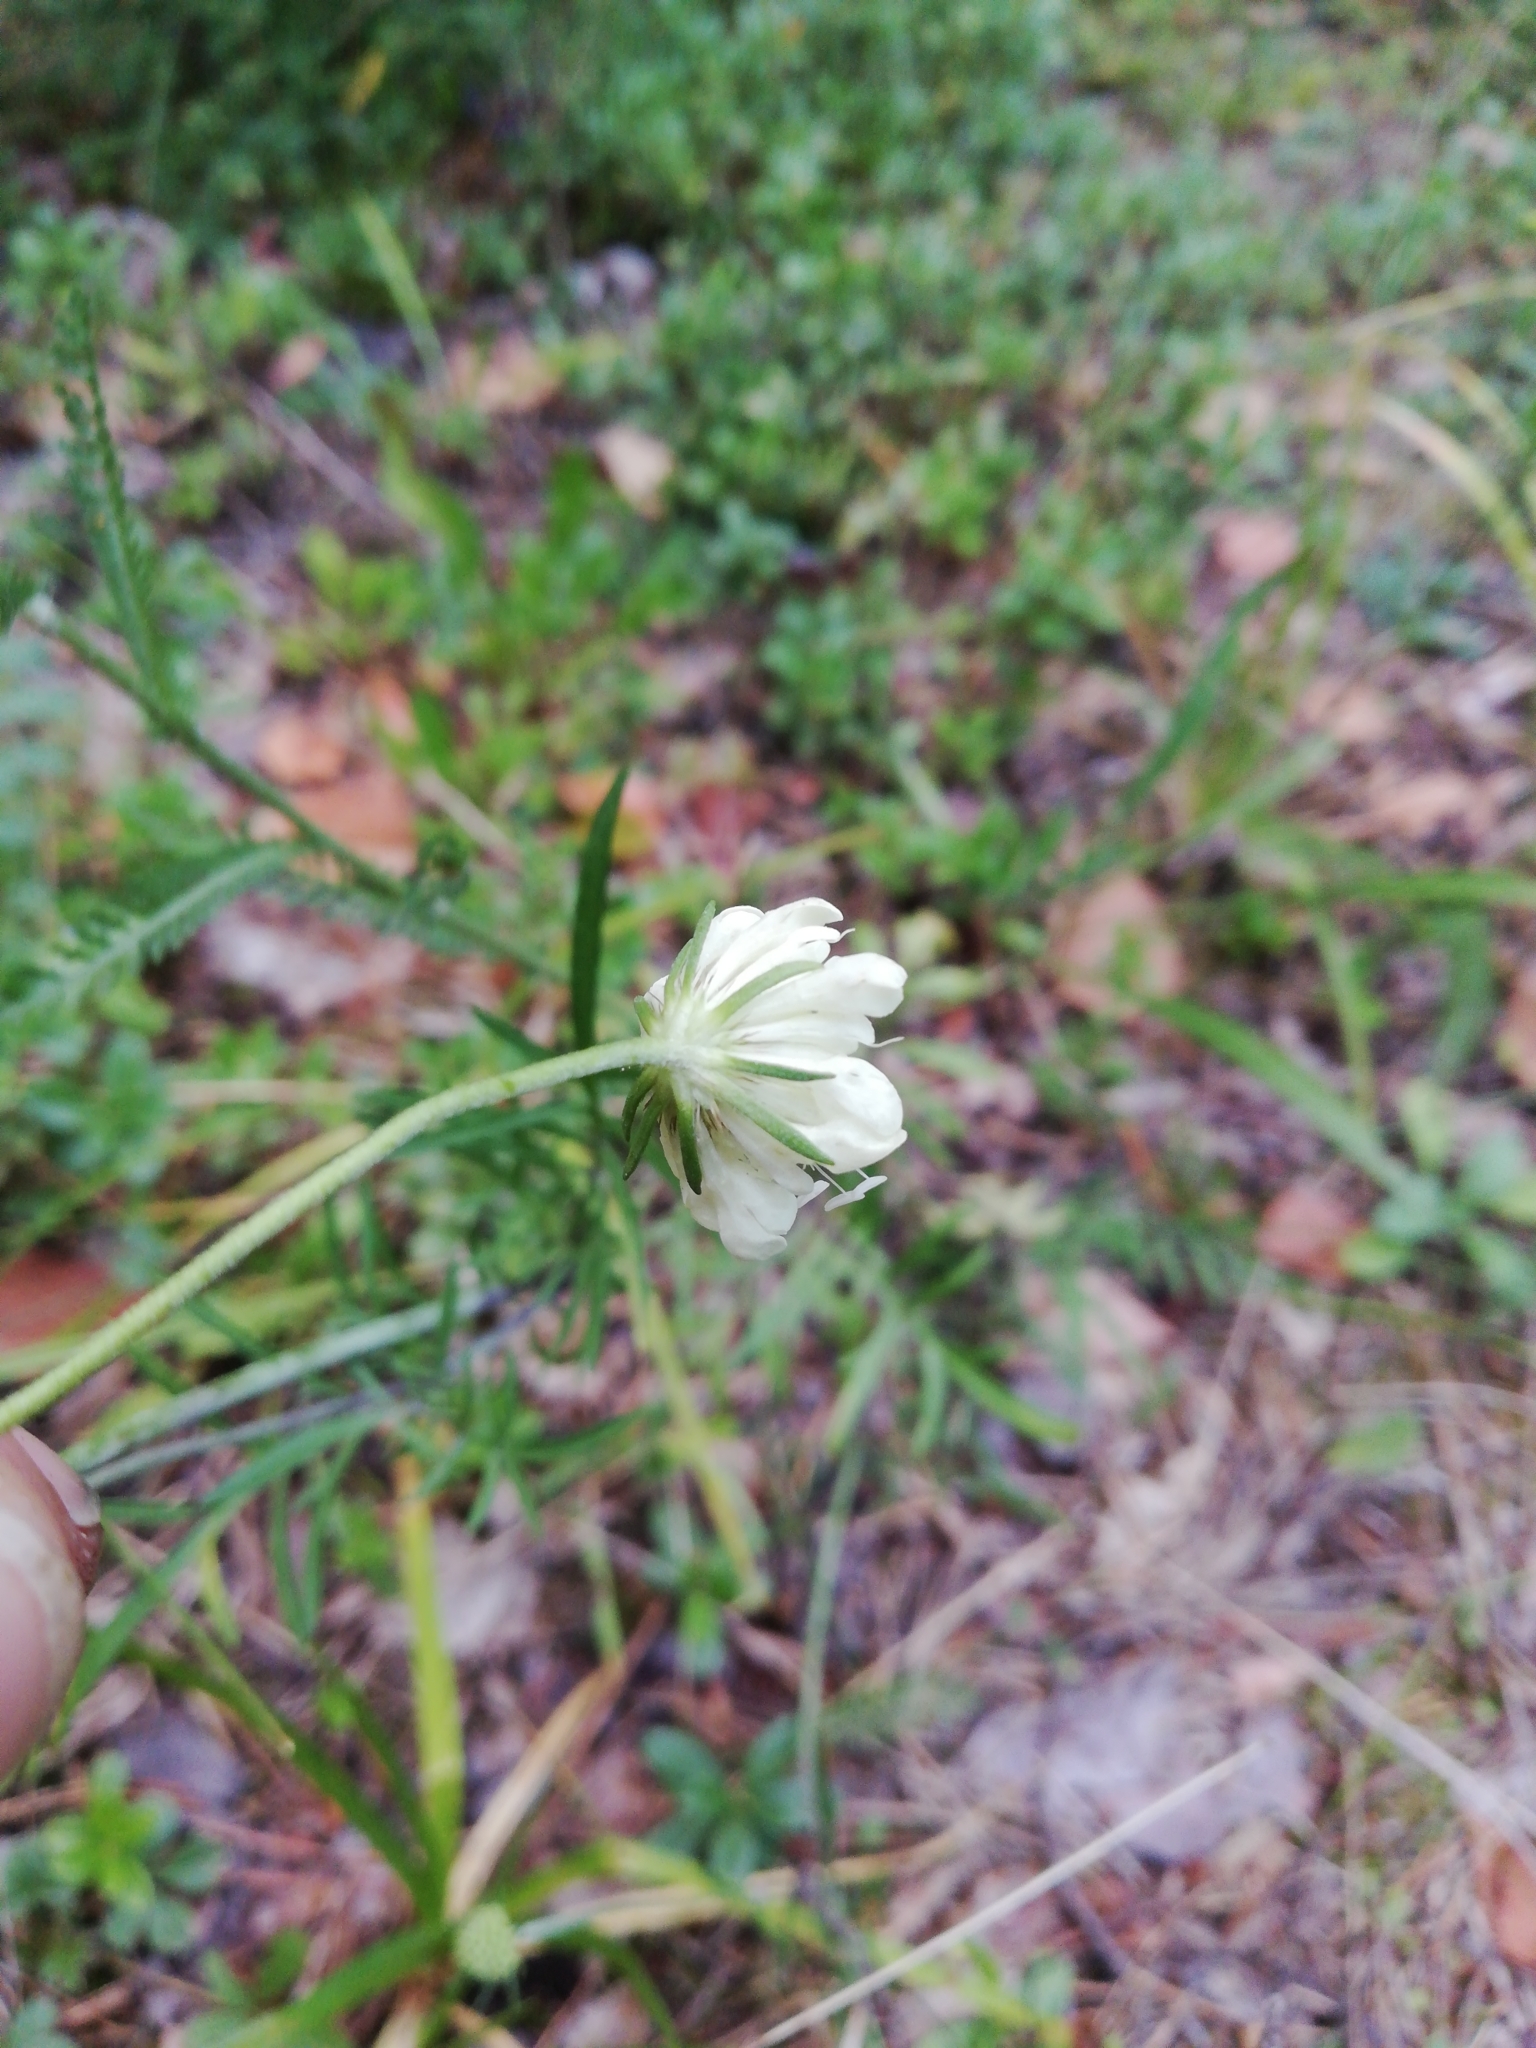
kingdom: Plantae
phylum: Tracheophyta
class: Magnoliopsida
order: Dipsacales
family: Caprifoliaceae
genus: Scabiosa
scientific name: Scabiosa ochroleuca
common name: Cream pincushions
